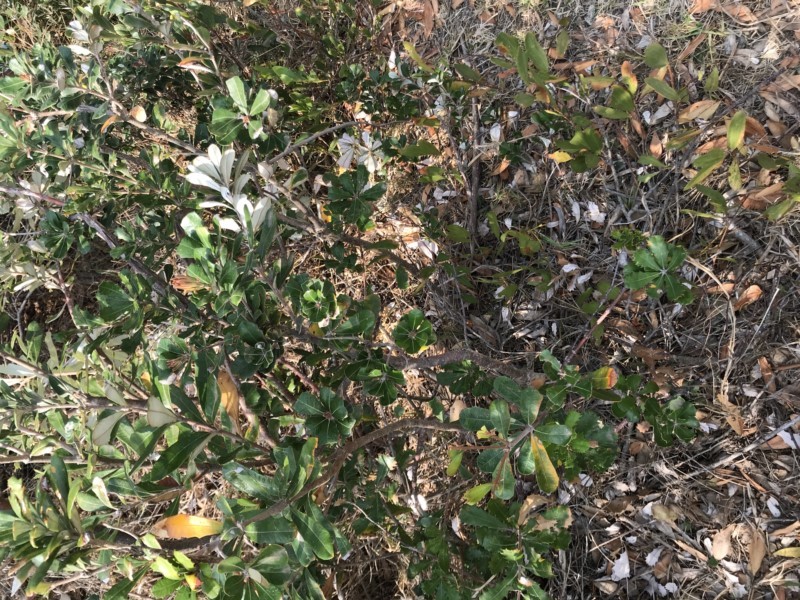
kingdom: Plantae
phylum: Tracheophyta
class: Magnoliopsida
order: Proteales
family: Proteaceae
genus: Banksia
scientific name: Banksia integrifolia
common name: White-honeysuckle
